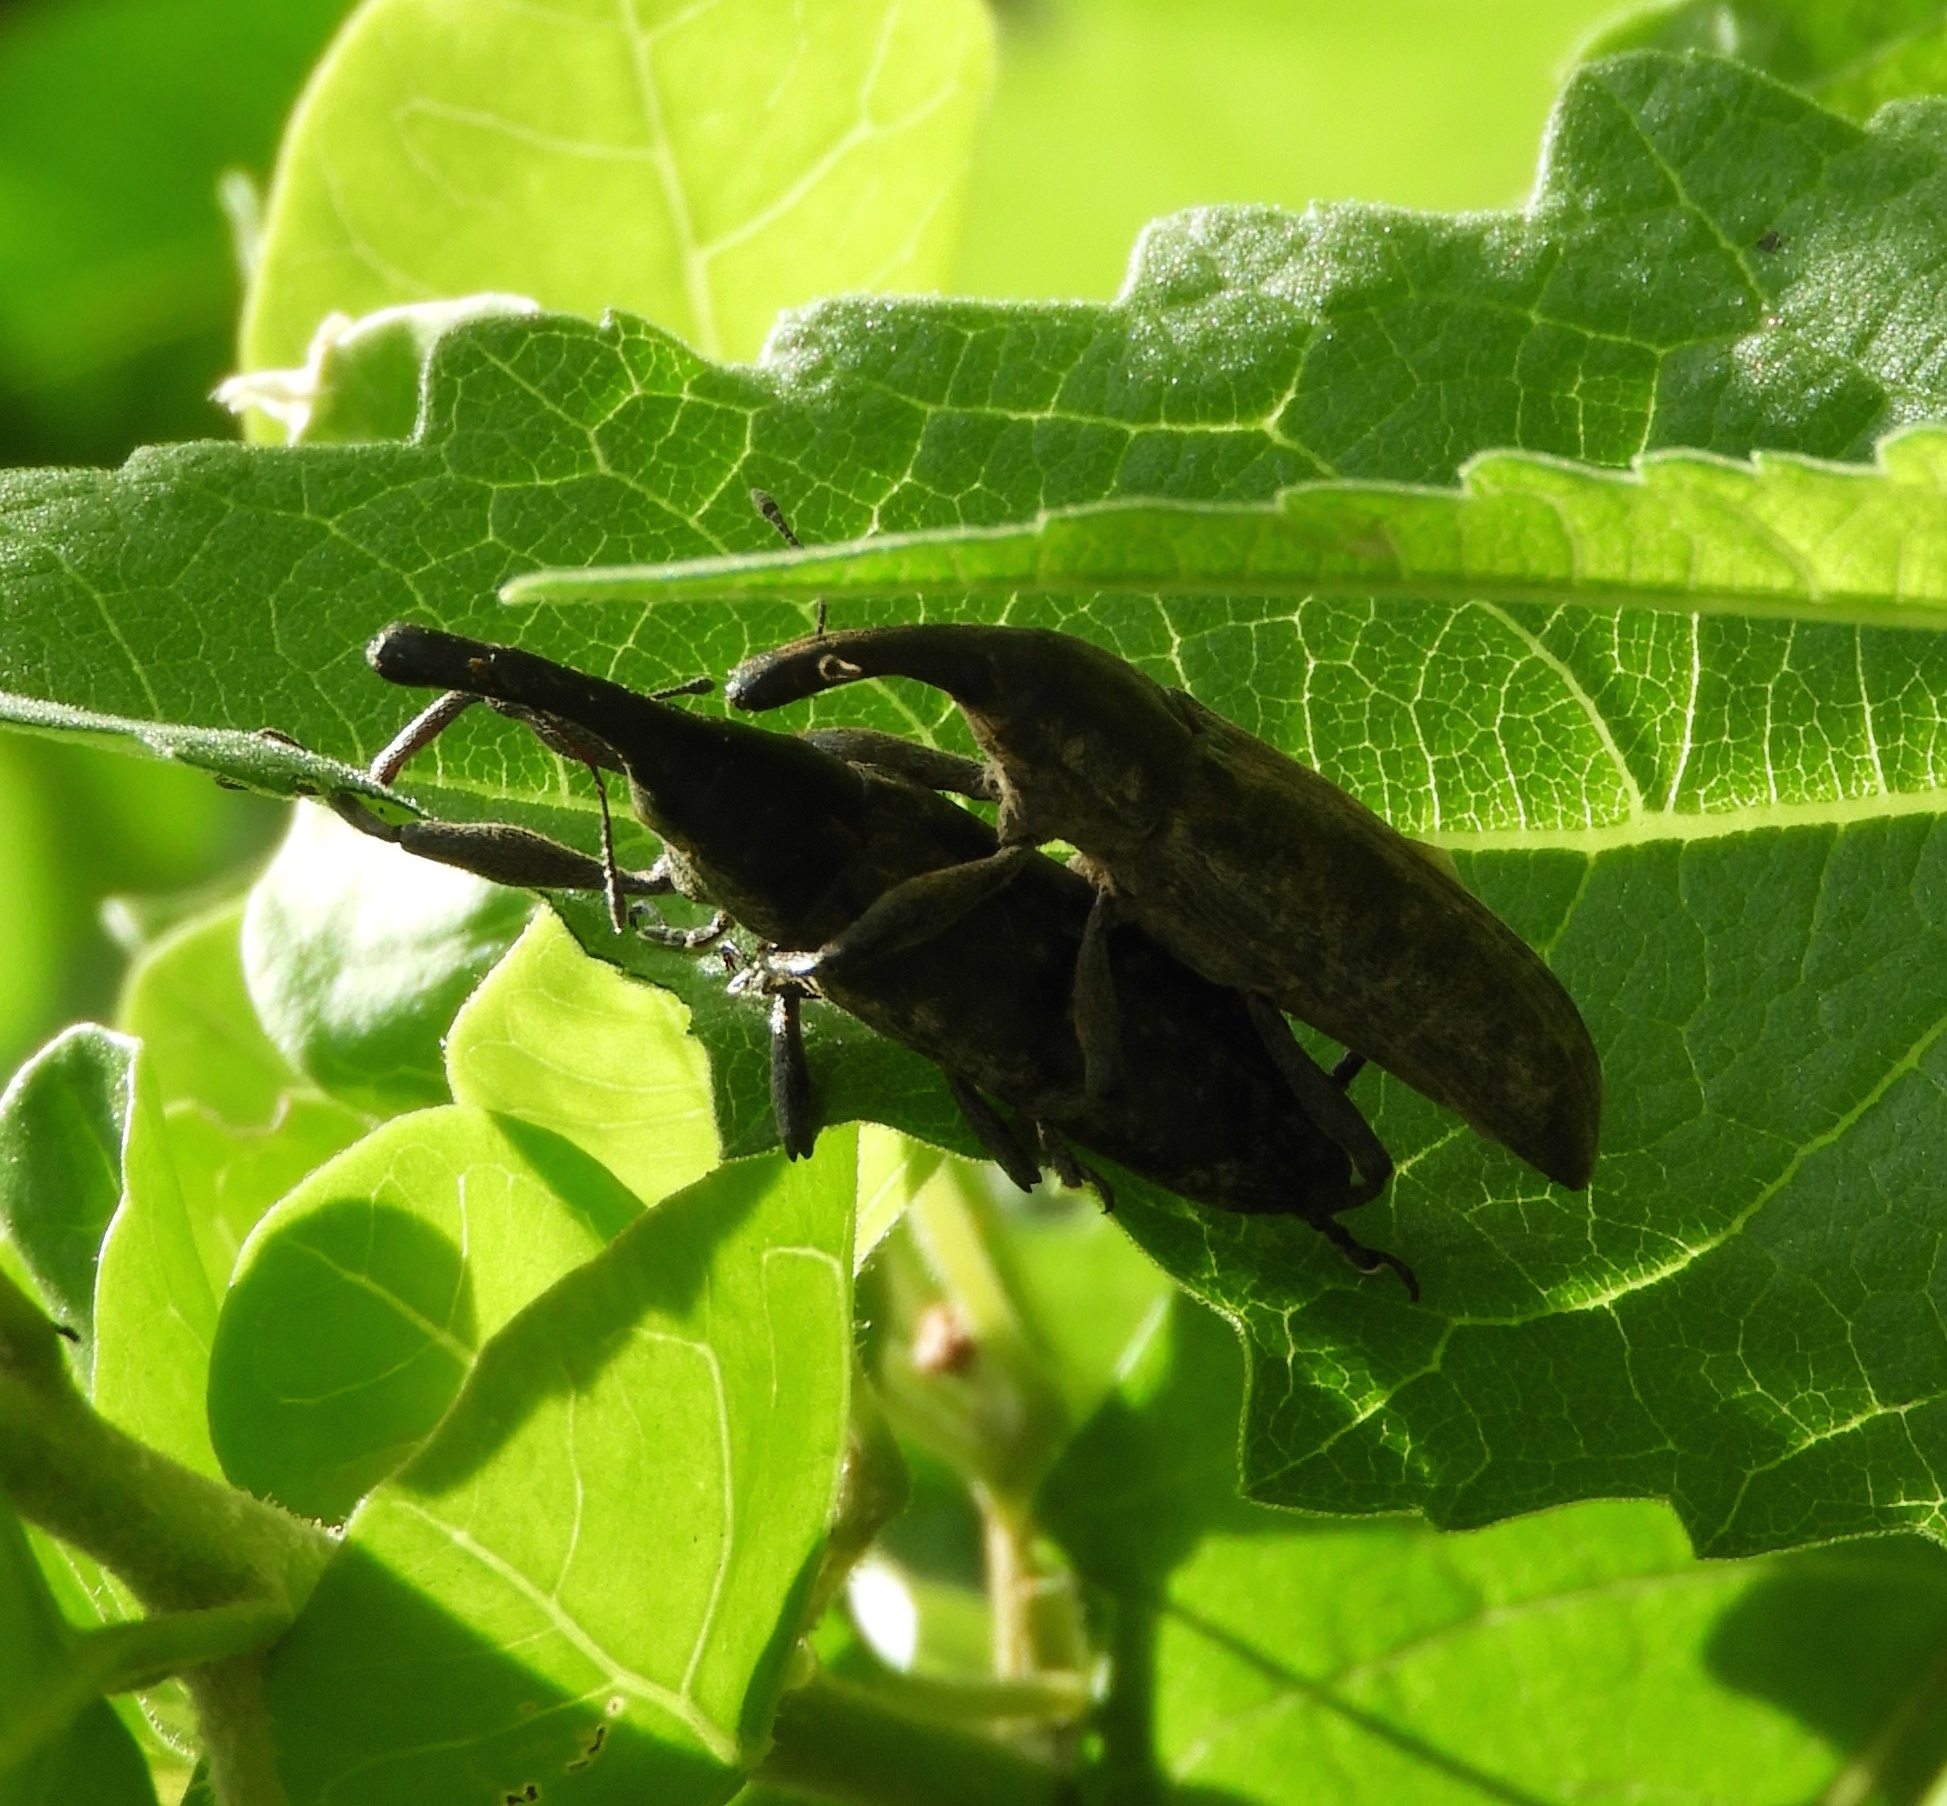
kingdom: Animalia
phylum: Arthropoda
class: Insecta
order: Coleoptera
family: Curculionidae
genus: Lixus
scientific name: Lixus
